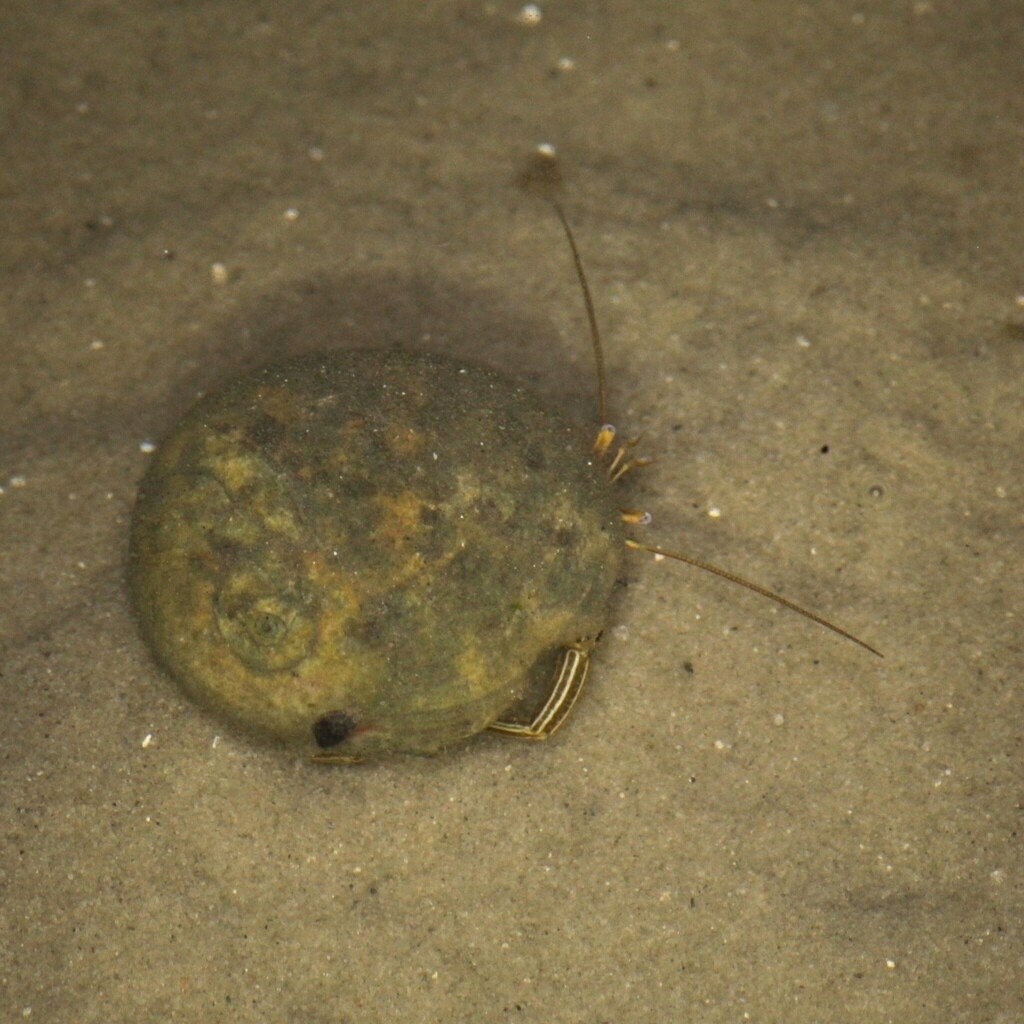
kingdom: Animalia
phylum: Arthropoda
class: Malacostraca
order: Decapoda
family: Diogenidae
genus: Clibanarius
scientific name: Clibanarius vittatus
